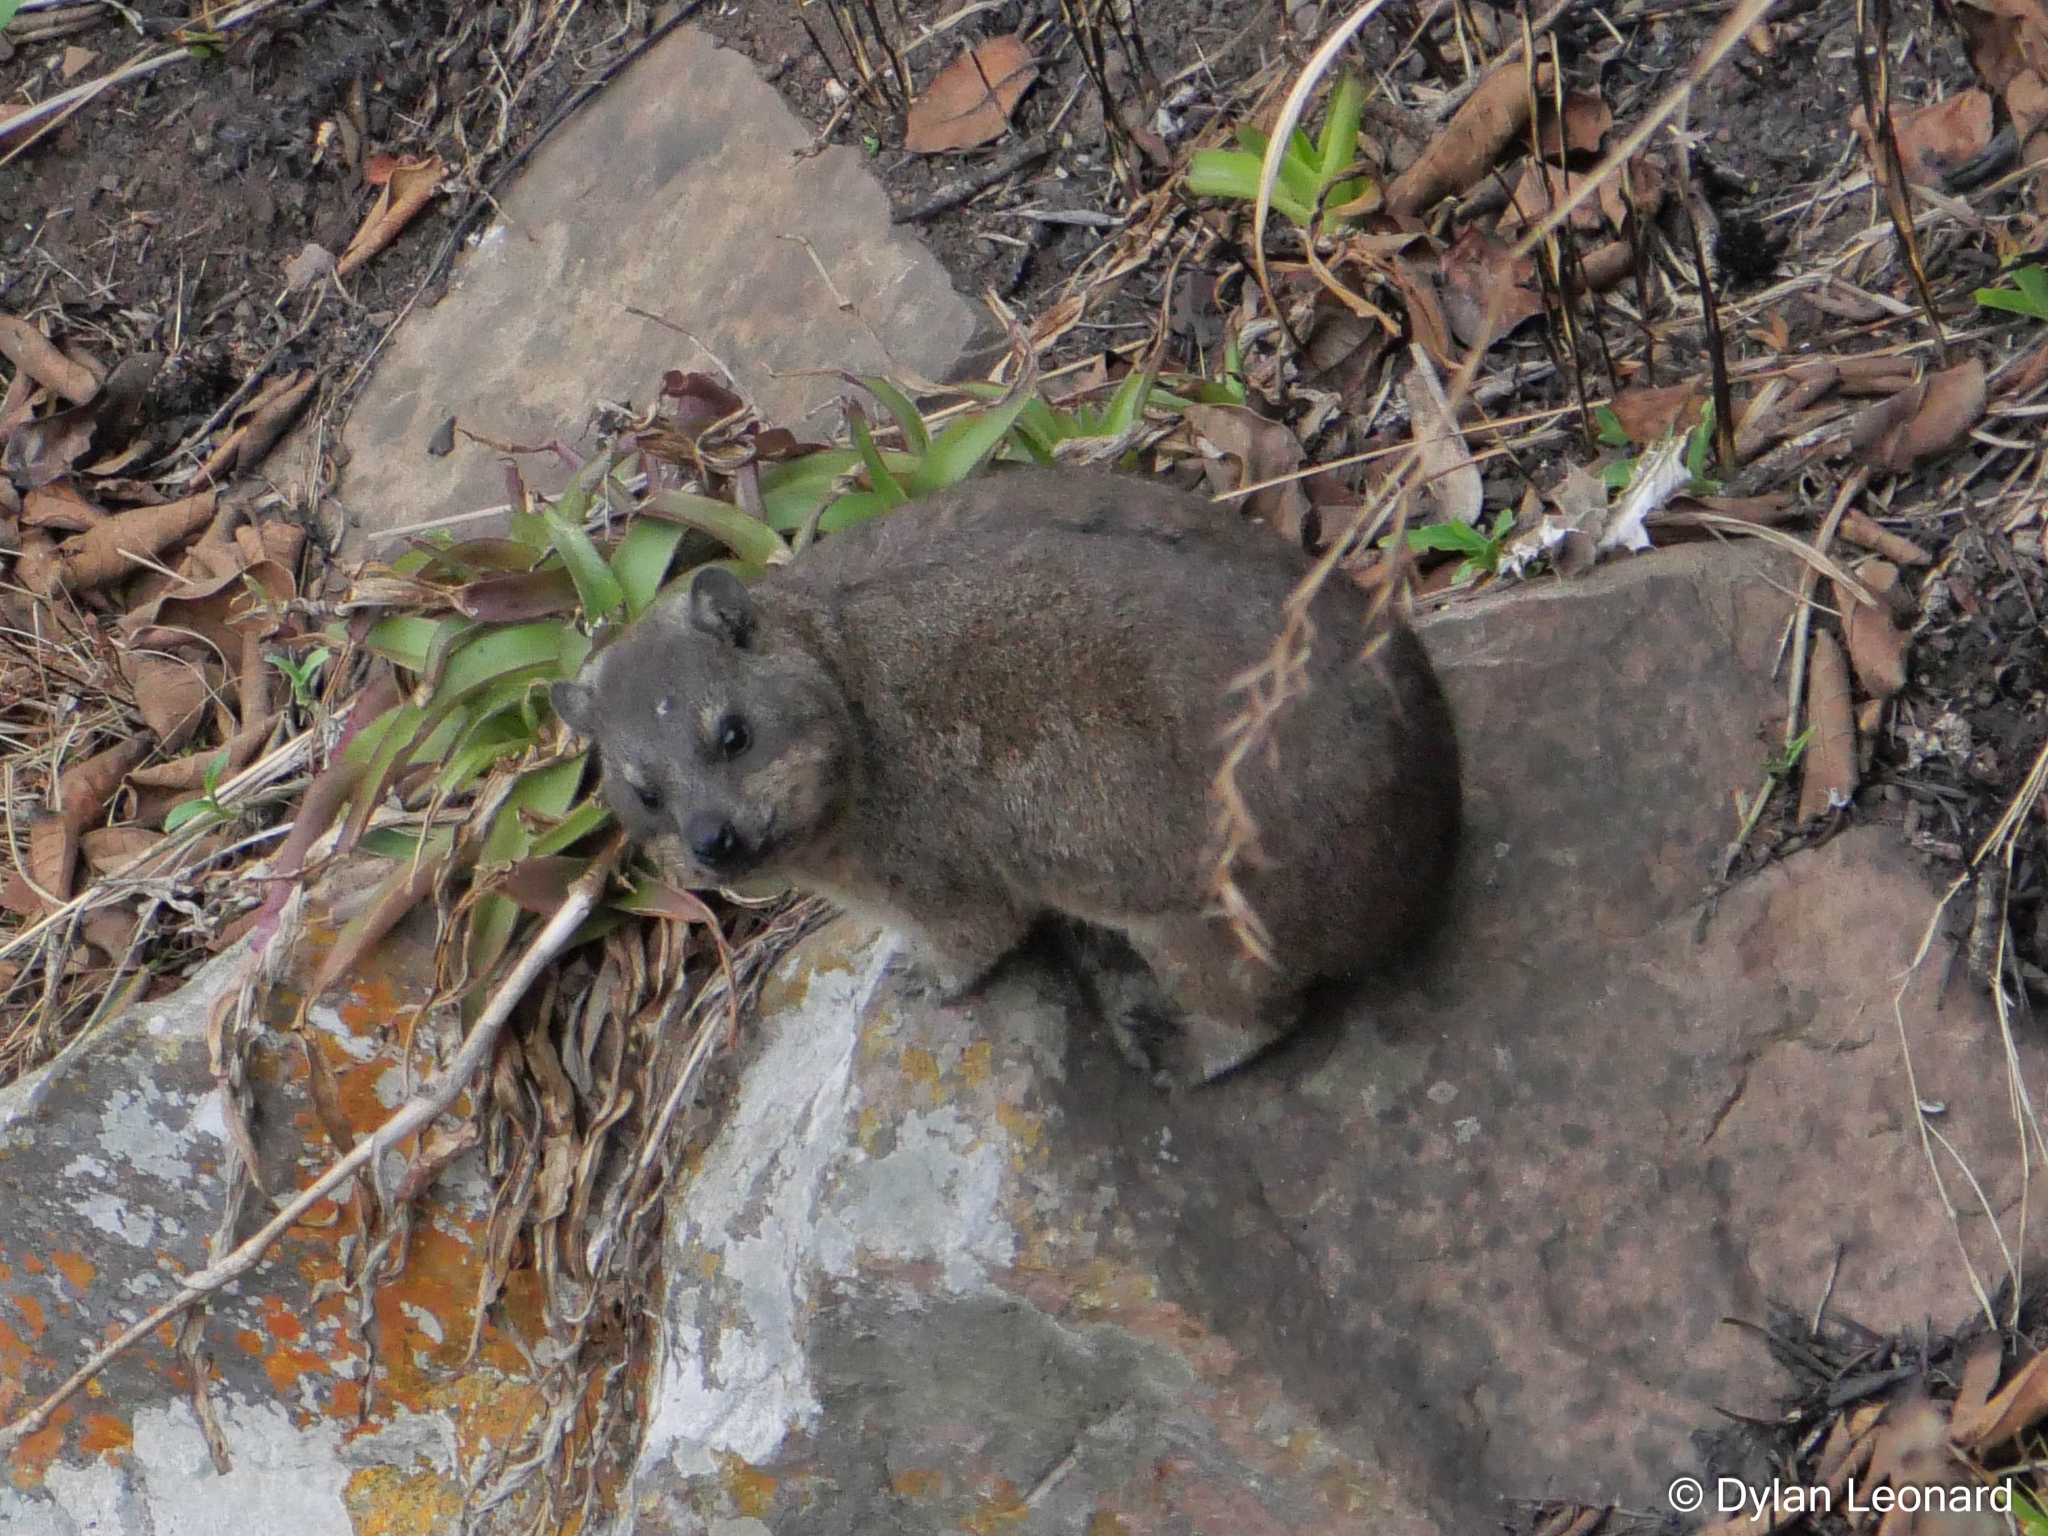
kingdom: Animalia
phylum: Chordata
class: Mammalia
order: Hyracoidea
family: Procaviidae
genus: Procavia
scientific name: Procavia capensis
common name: Rock hyrax
